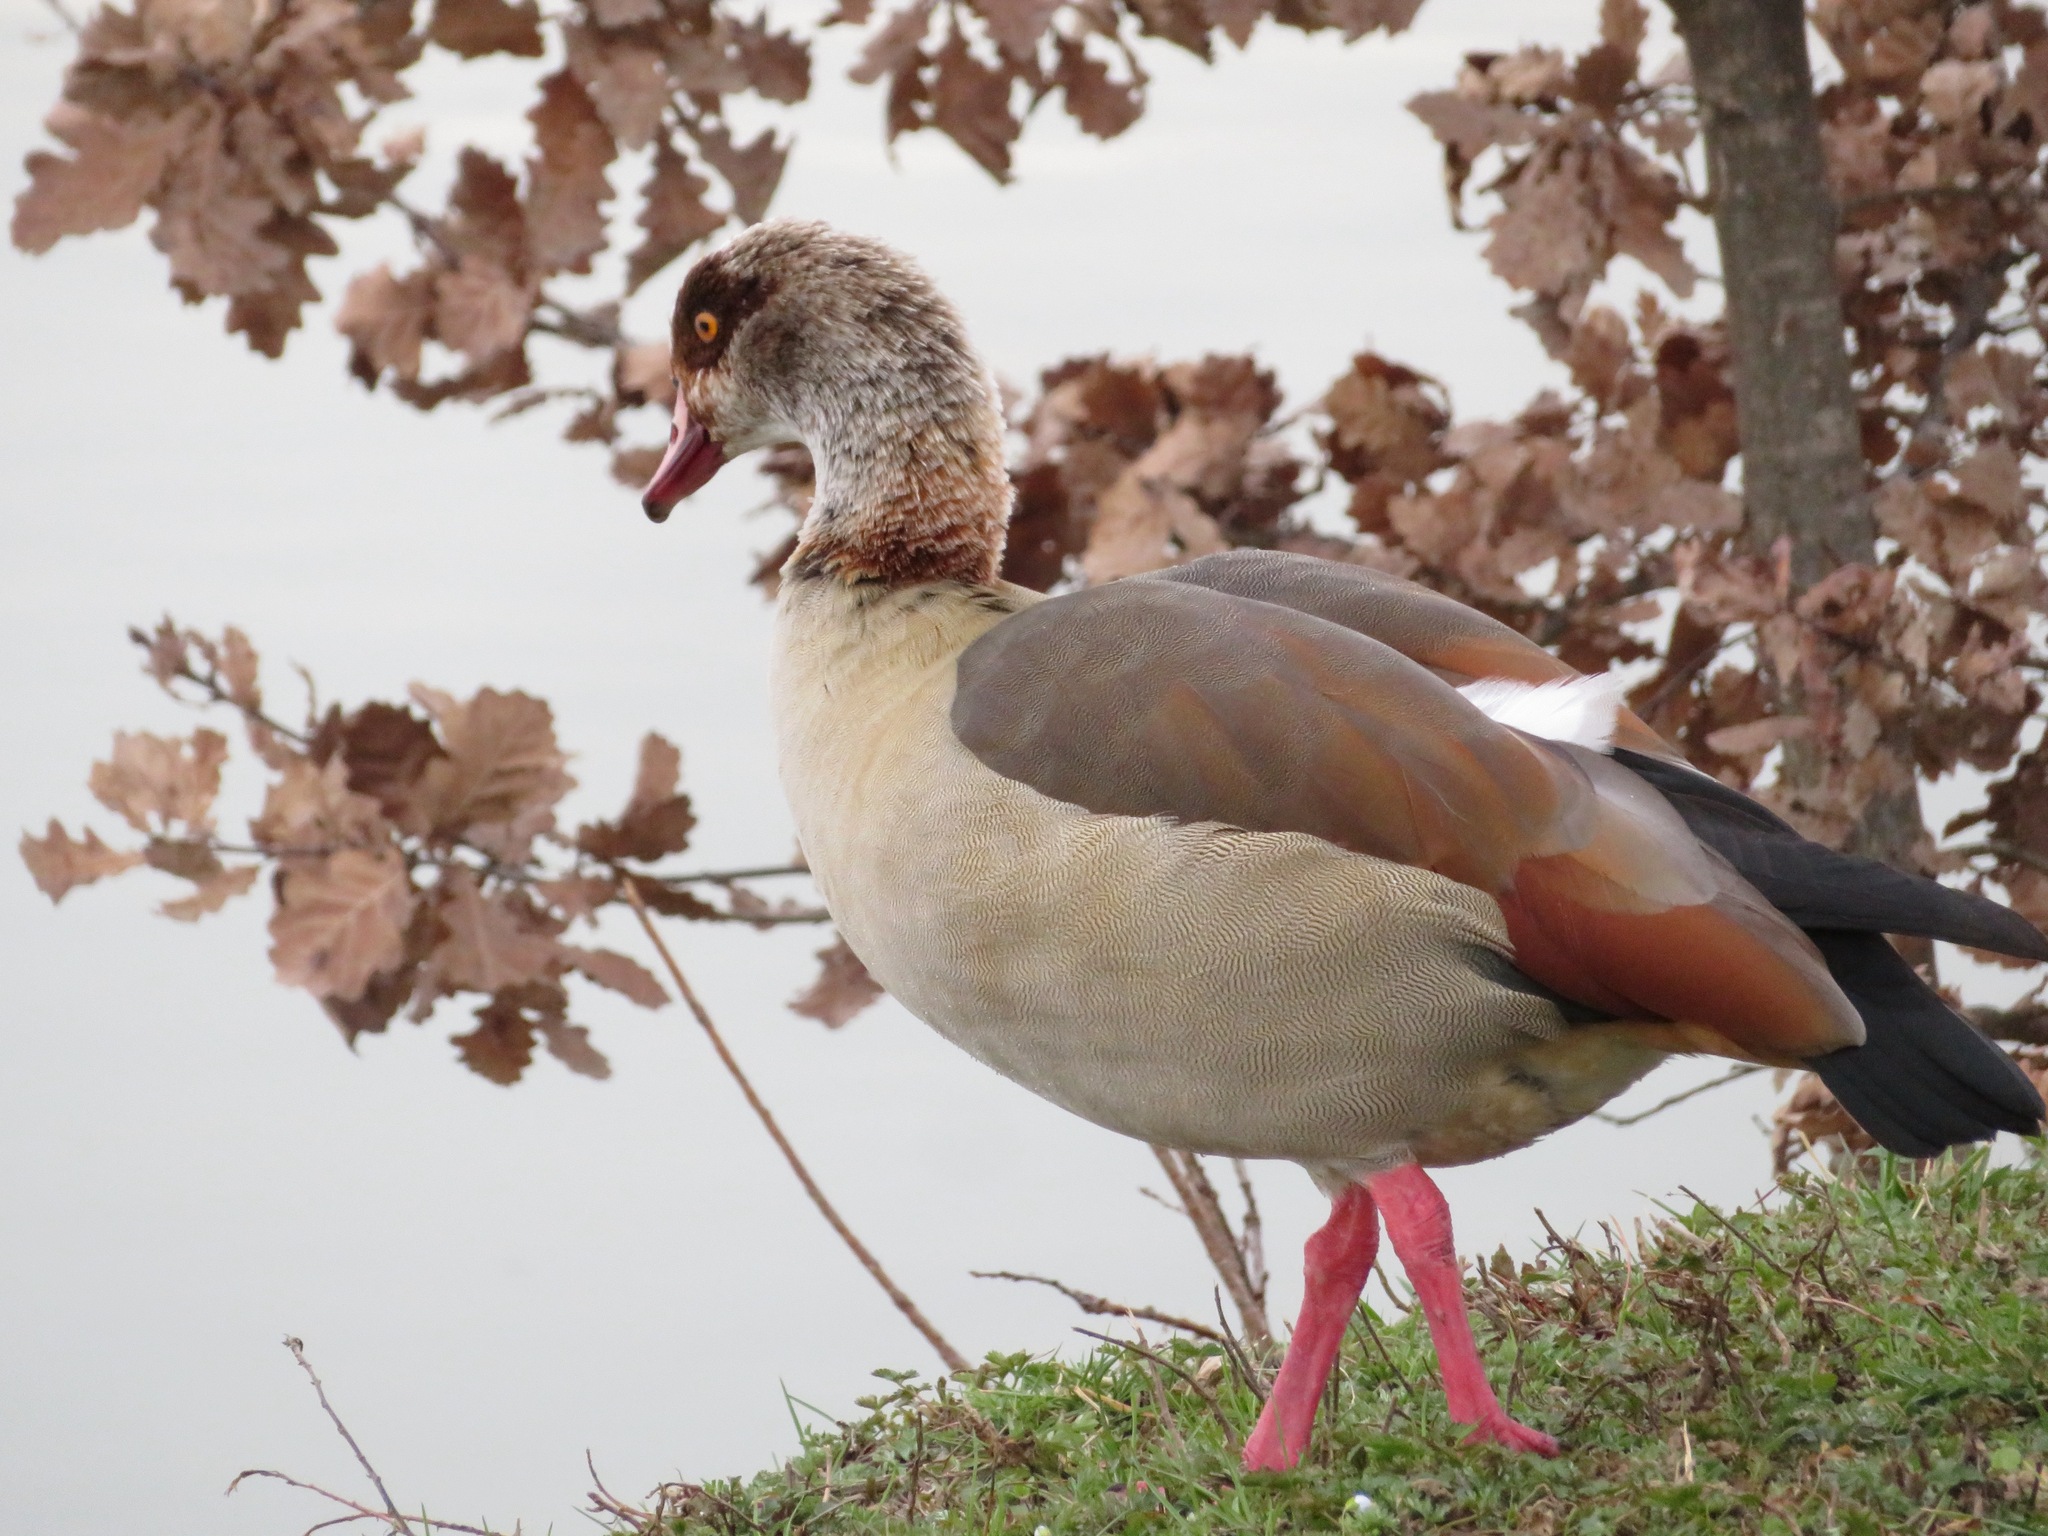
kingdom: Animalia
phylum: Chordata
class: Aves
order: Anseriformes
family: Anatidae
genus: Alopochen
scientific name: Alopochen aegyptiaca
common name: Egyptian goose
